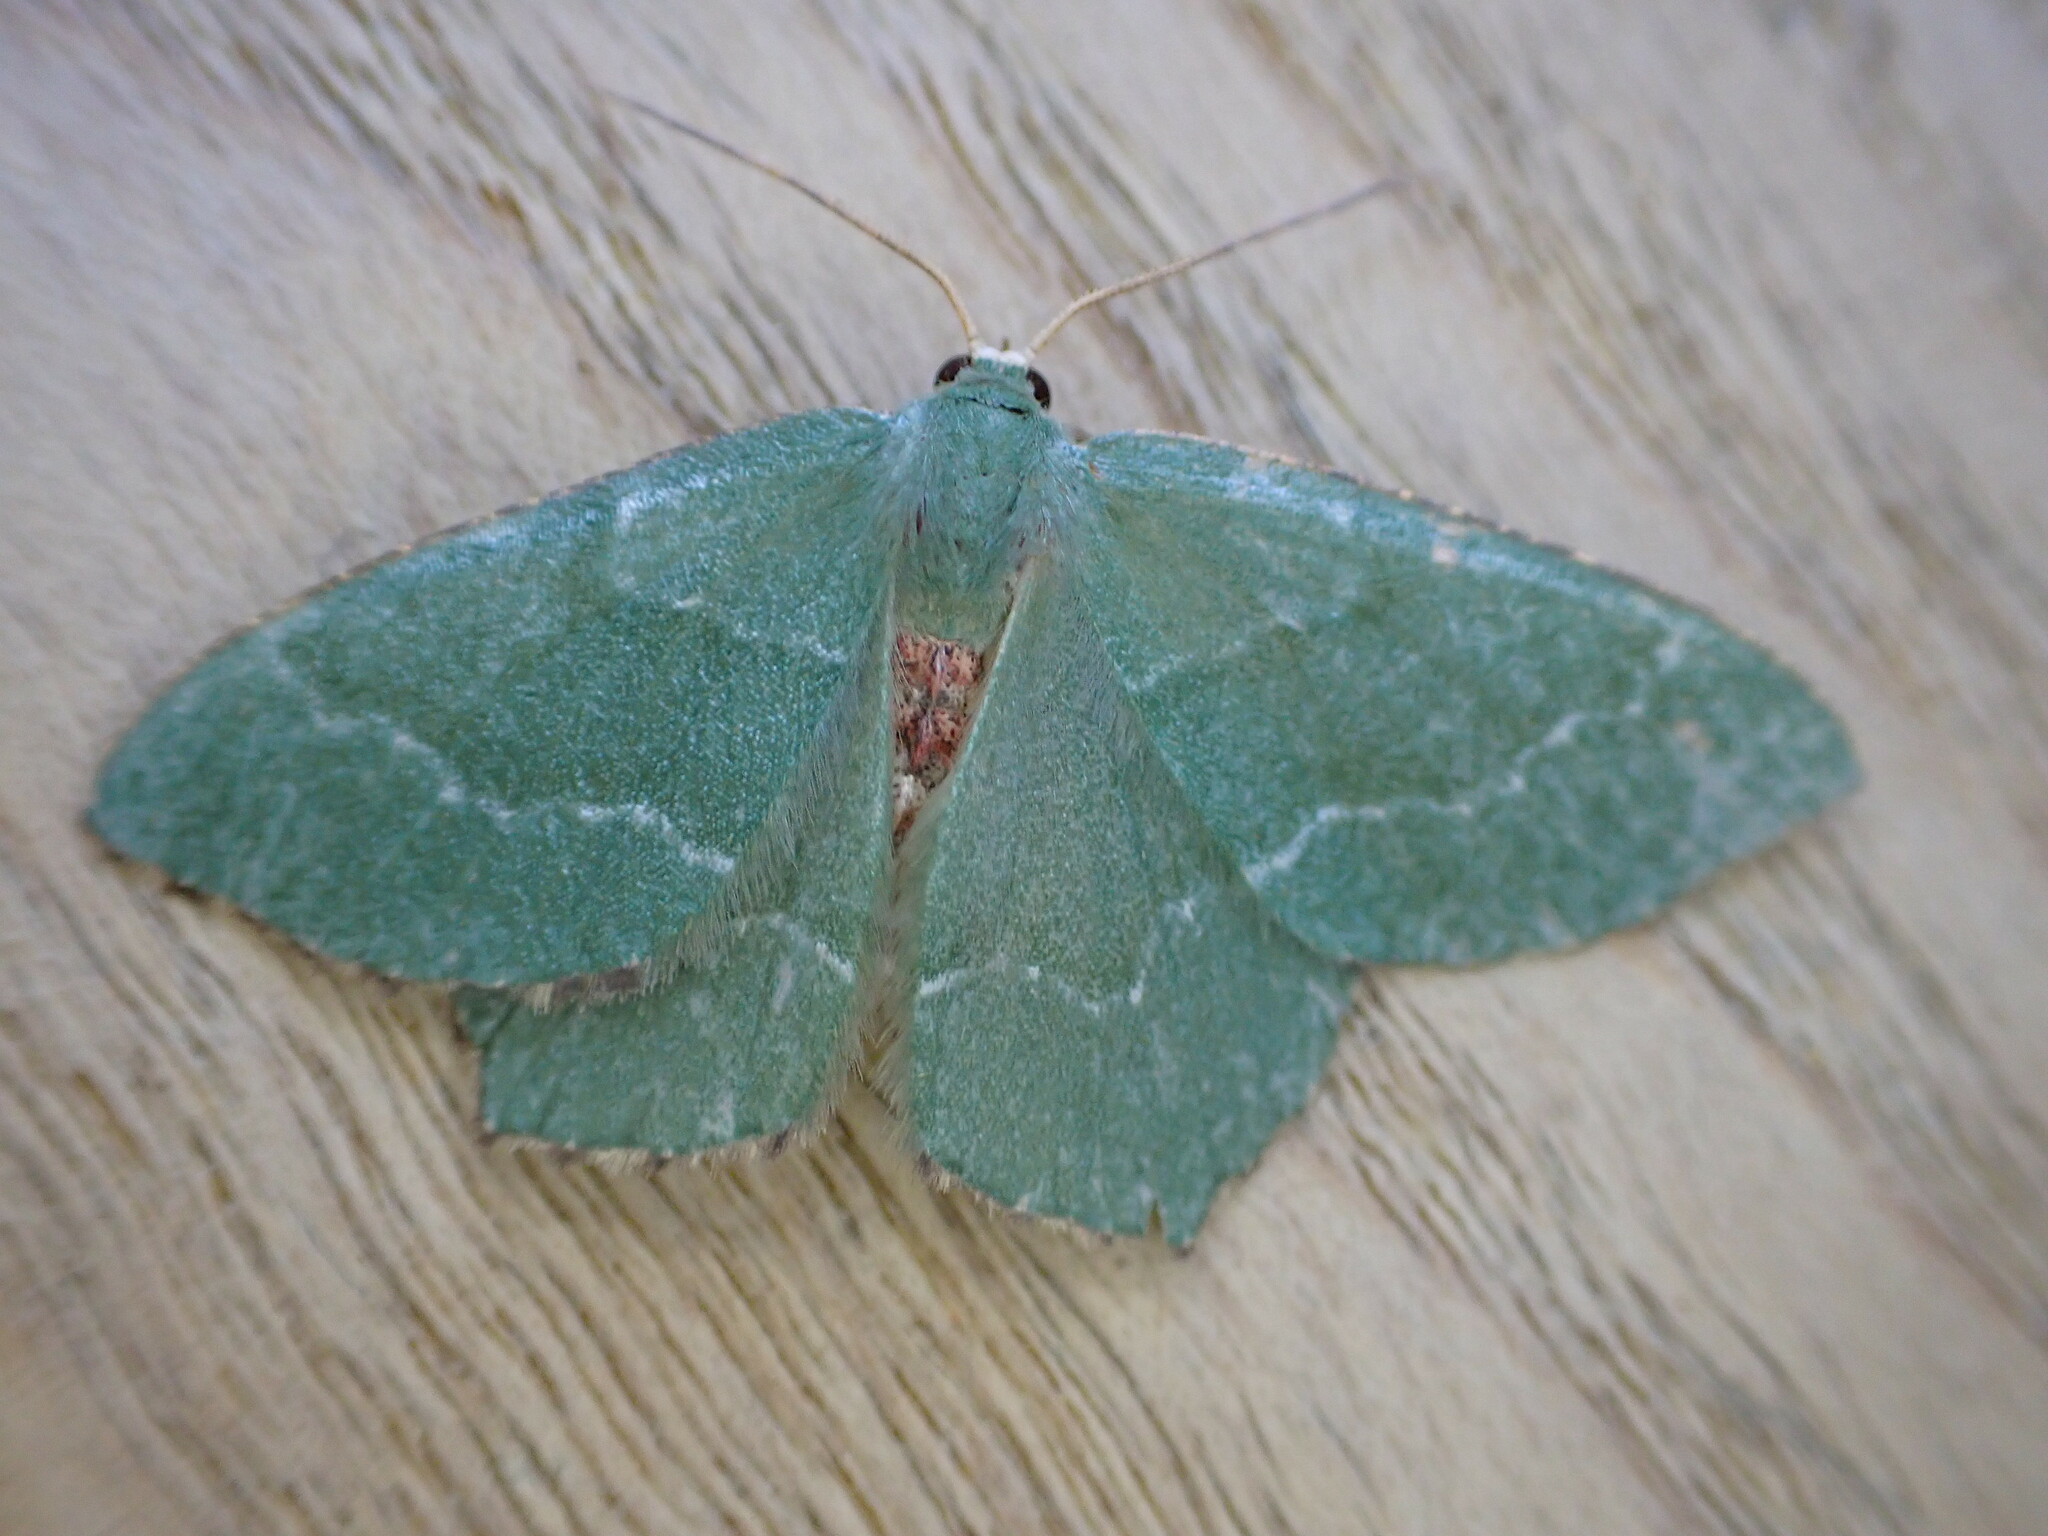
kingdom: Animalia
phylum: Arthropoda
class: Insecta
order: Lepidoptera
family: Geometridae
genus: Hemithea
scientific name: Hemithea aestivaria
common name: Common emerald
